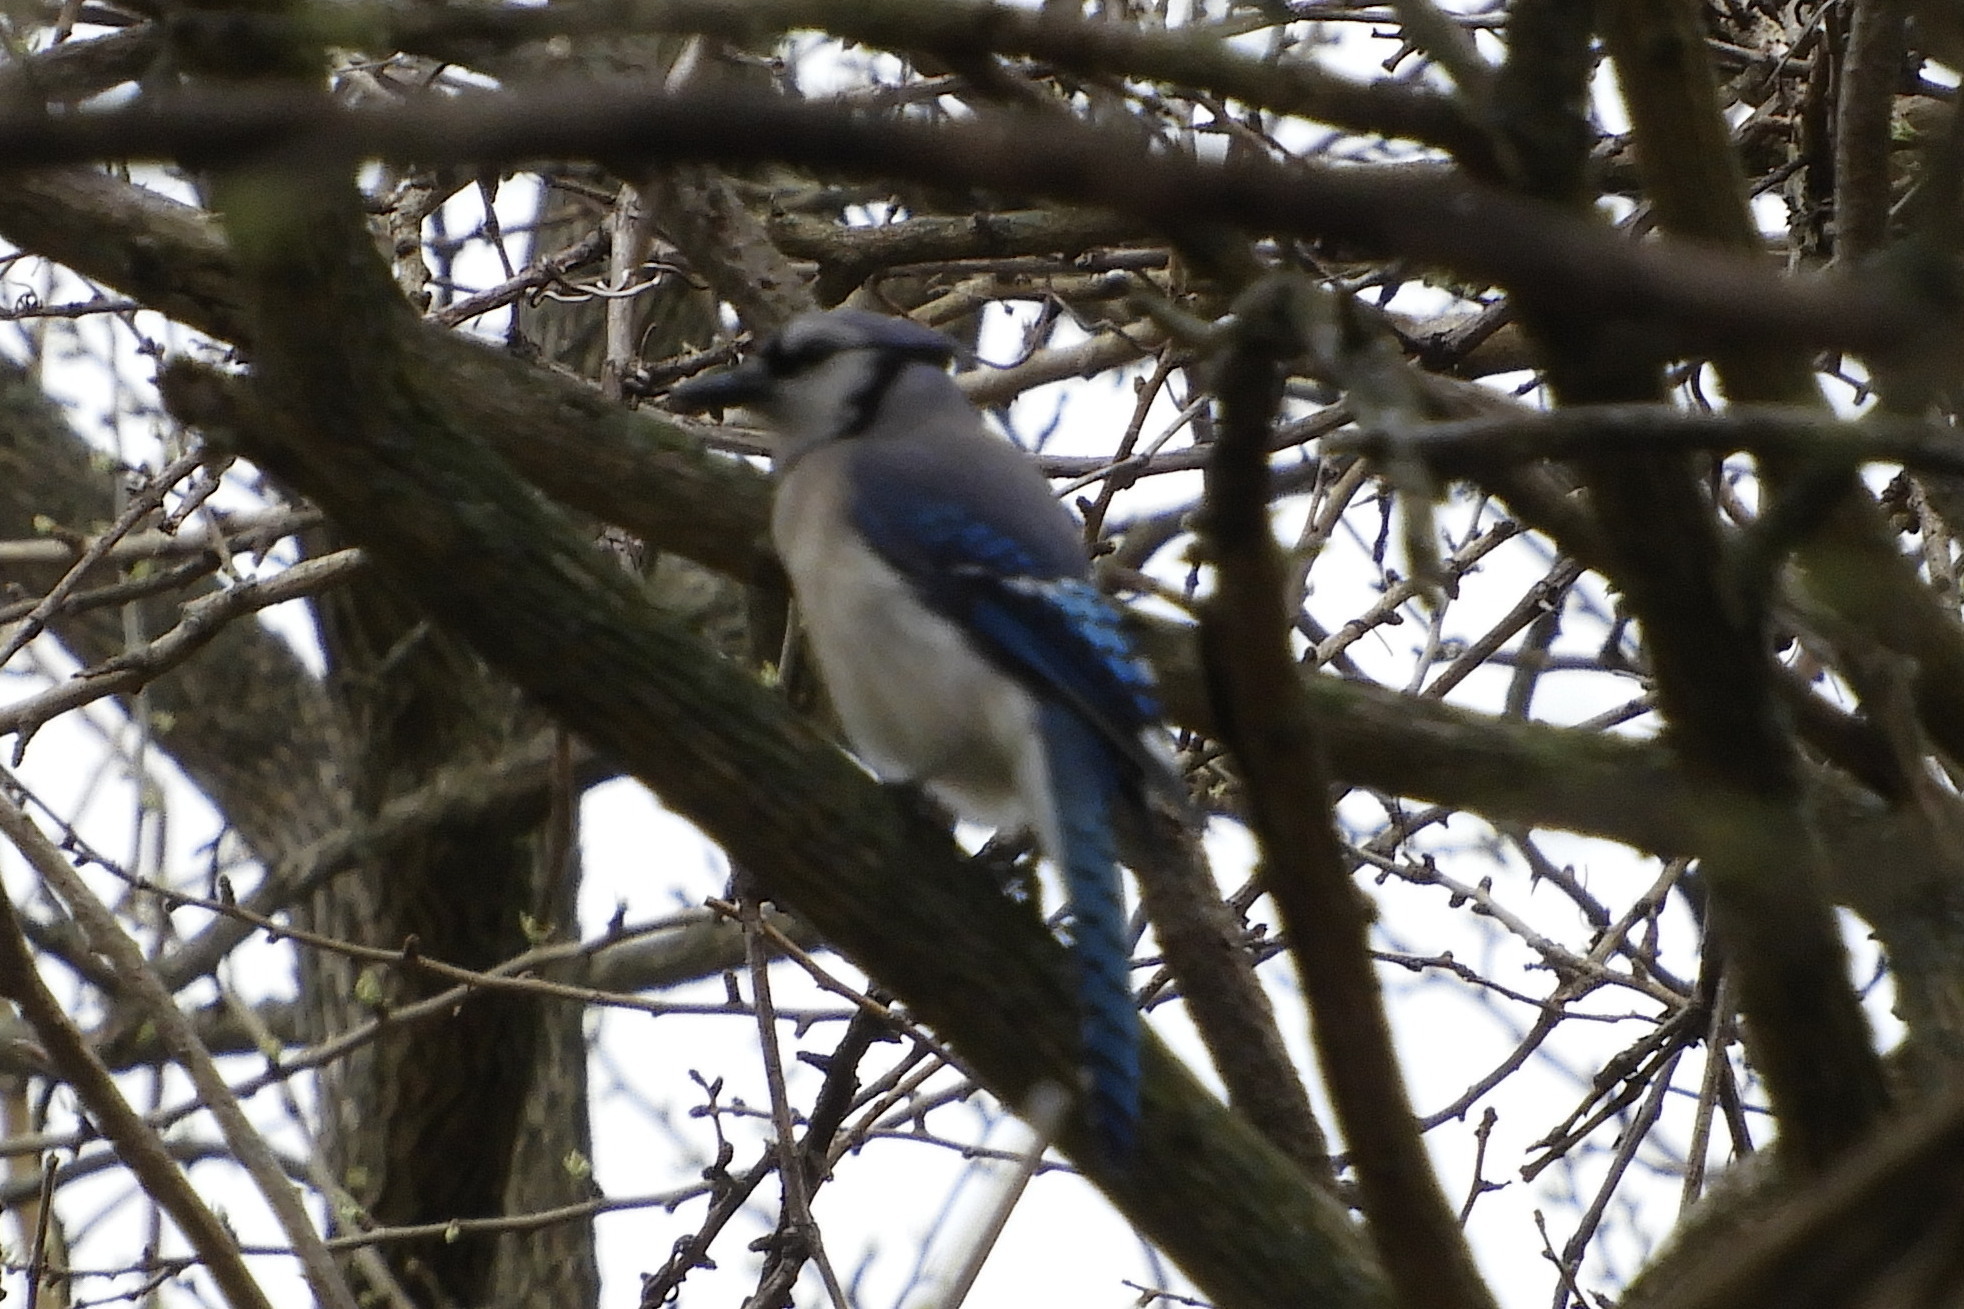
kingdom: Animalia
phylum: Chordata
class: Aves
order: Passeriformes
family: Corvidae
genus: Cyanocitta
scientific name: Cyanocitta cristata
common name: Blue jay
